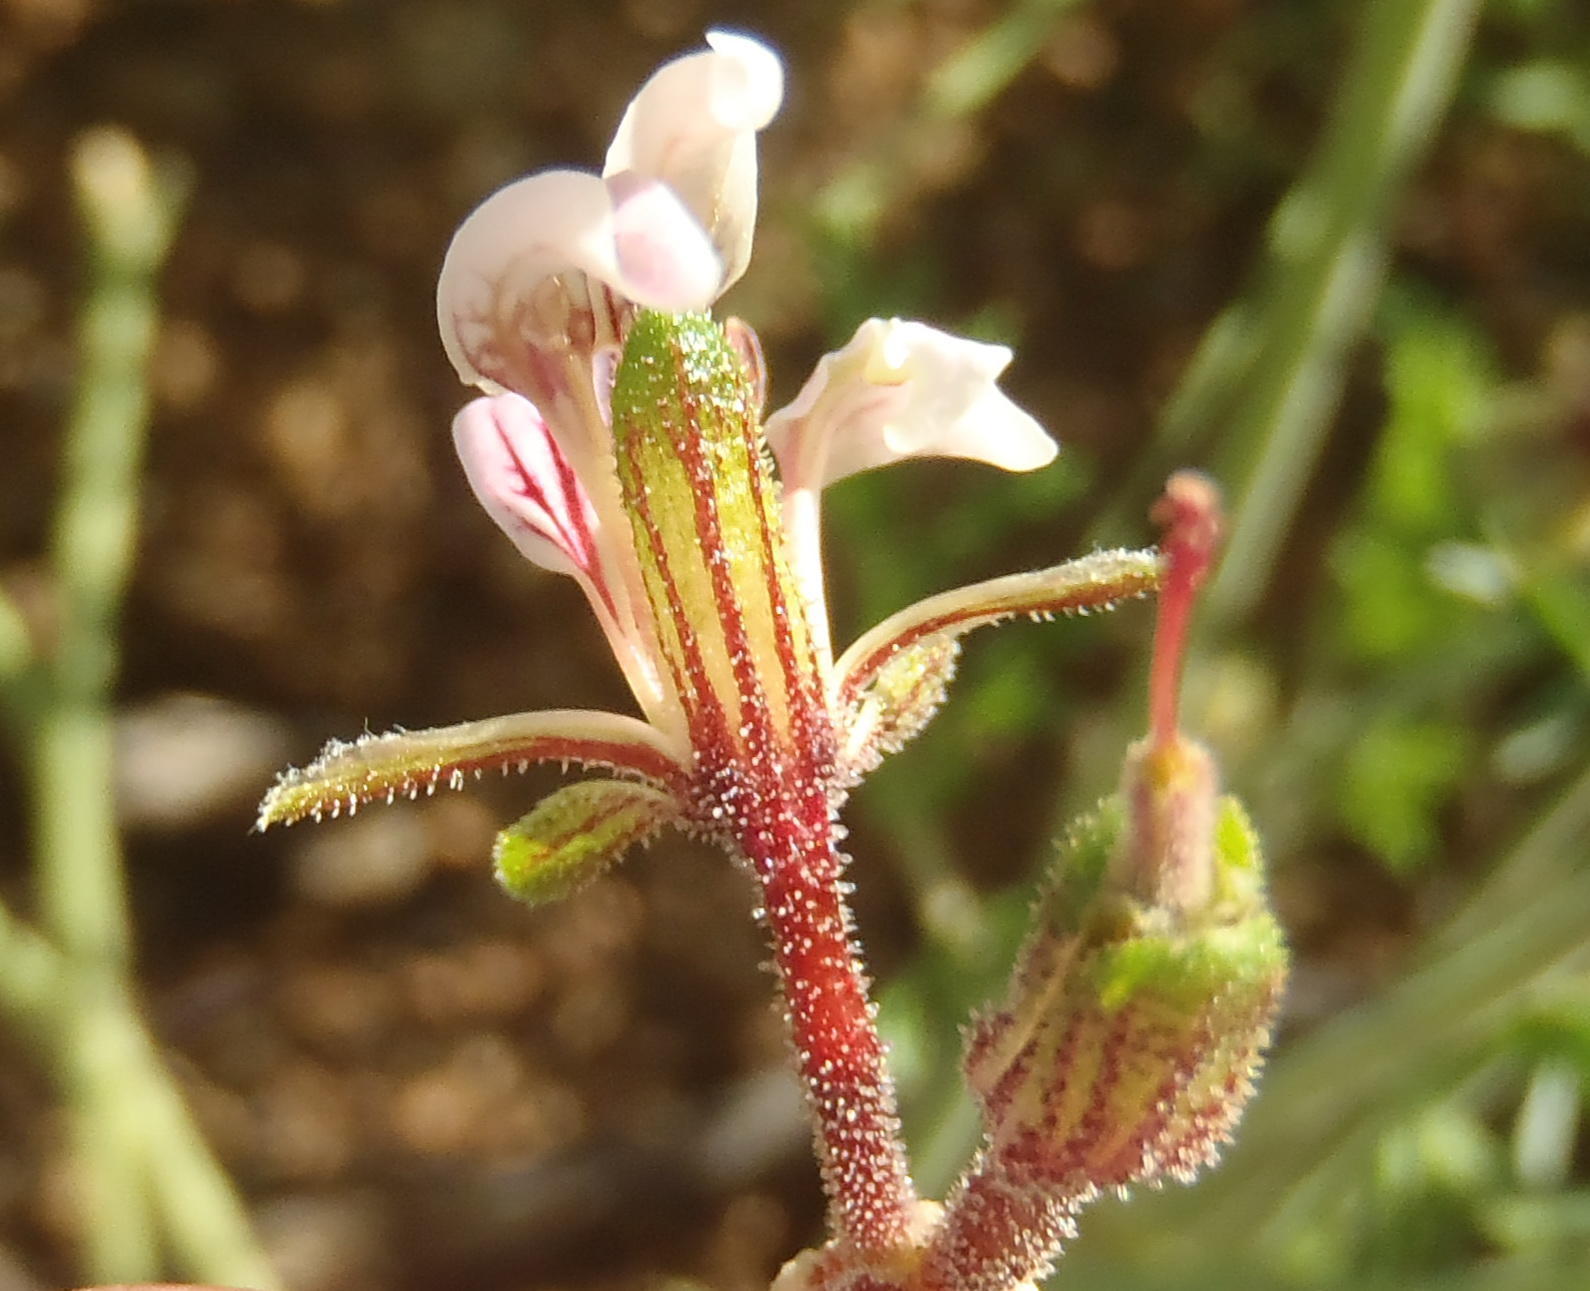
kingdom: Plantae
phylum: Tracheophyta
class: Magnoliopsida
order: Geraniales
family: Geraniaceae
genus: Pelargonium
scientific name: Pelargonium dolomiticum
